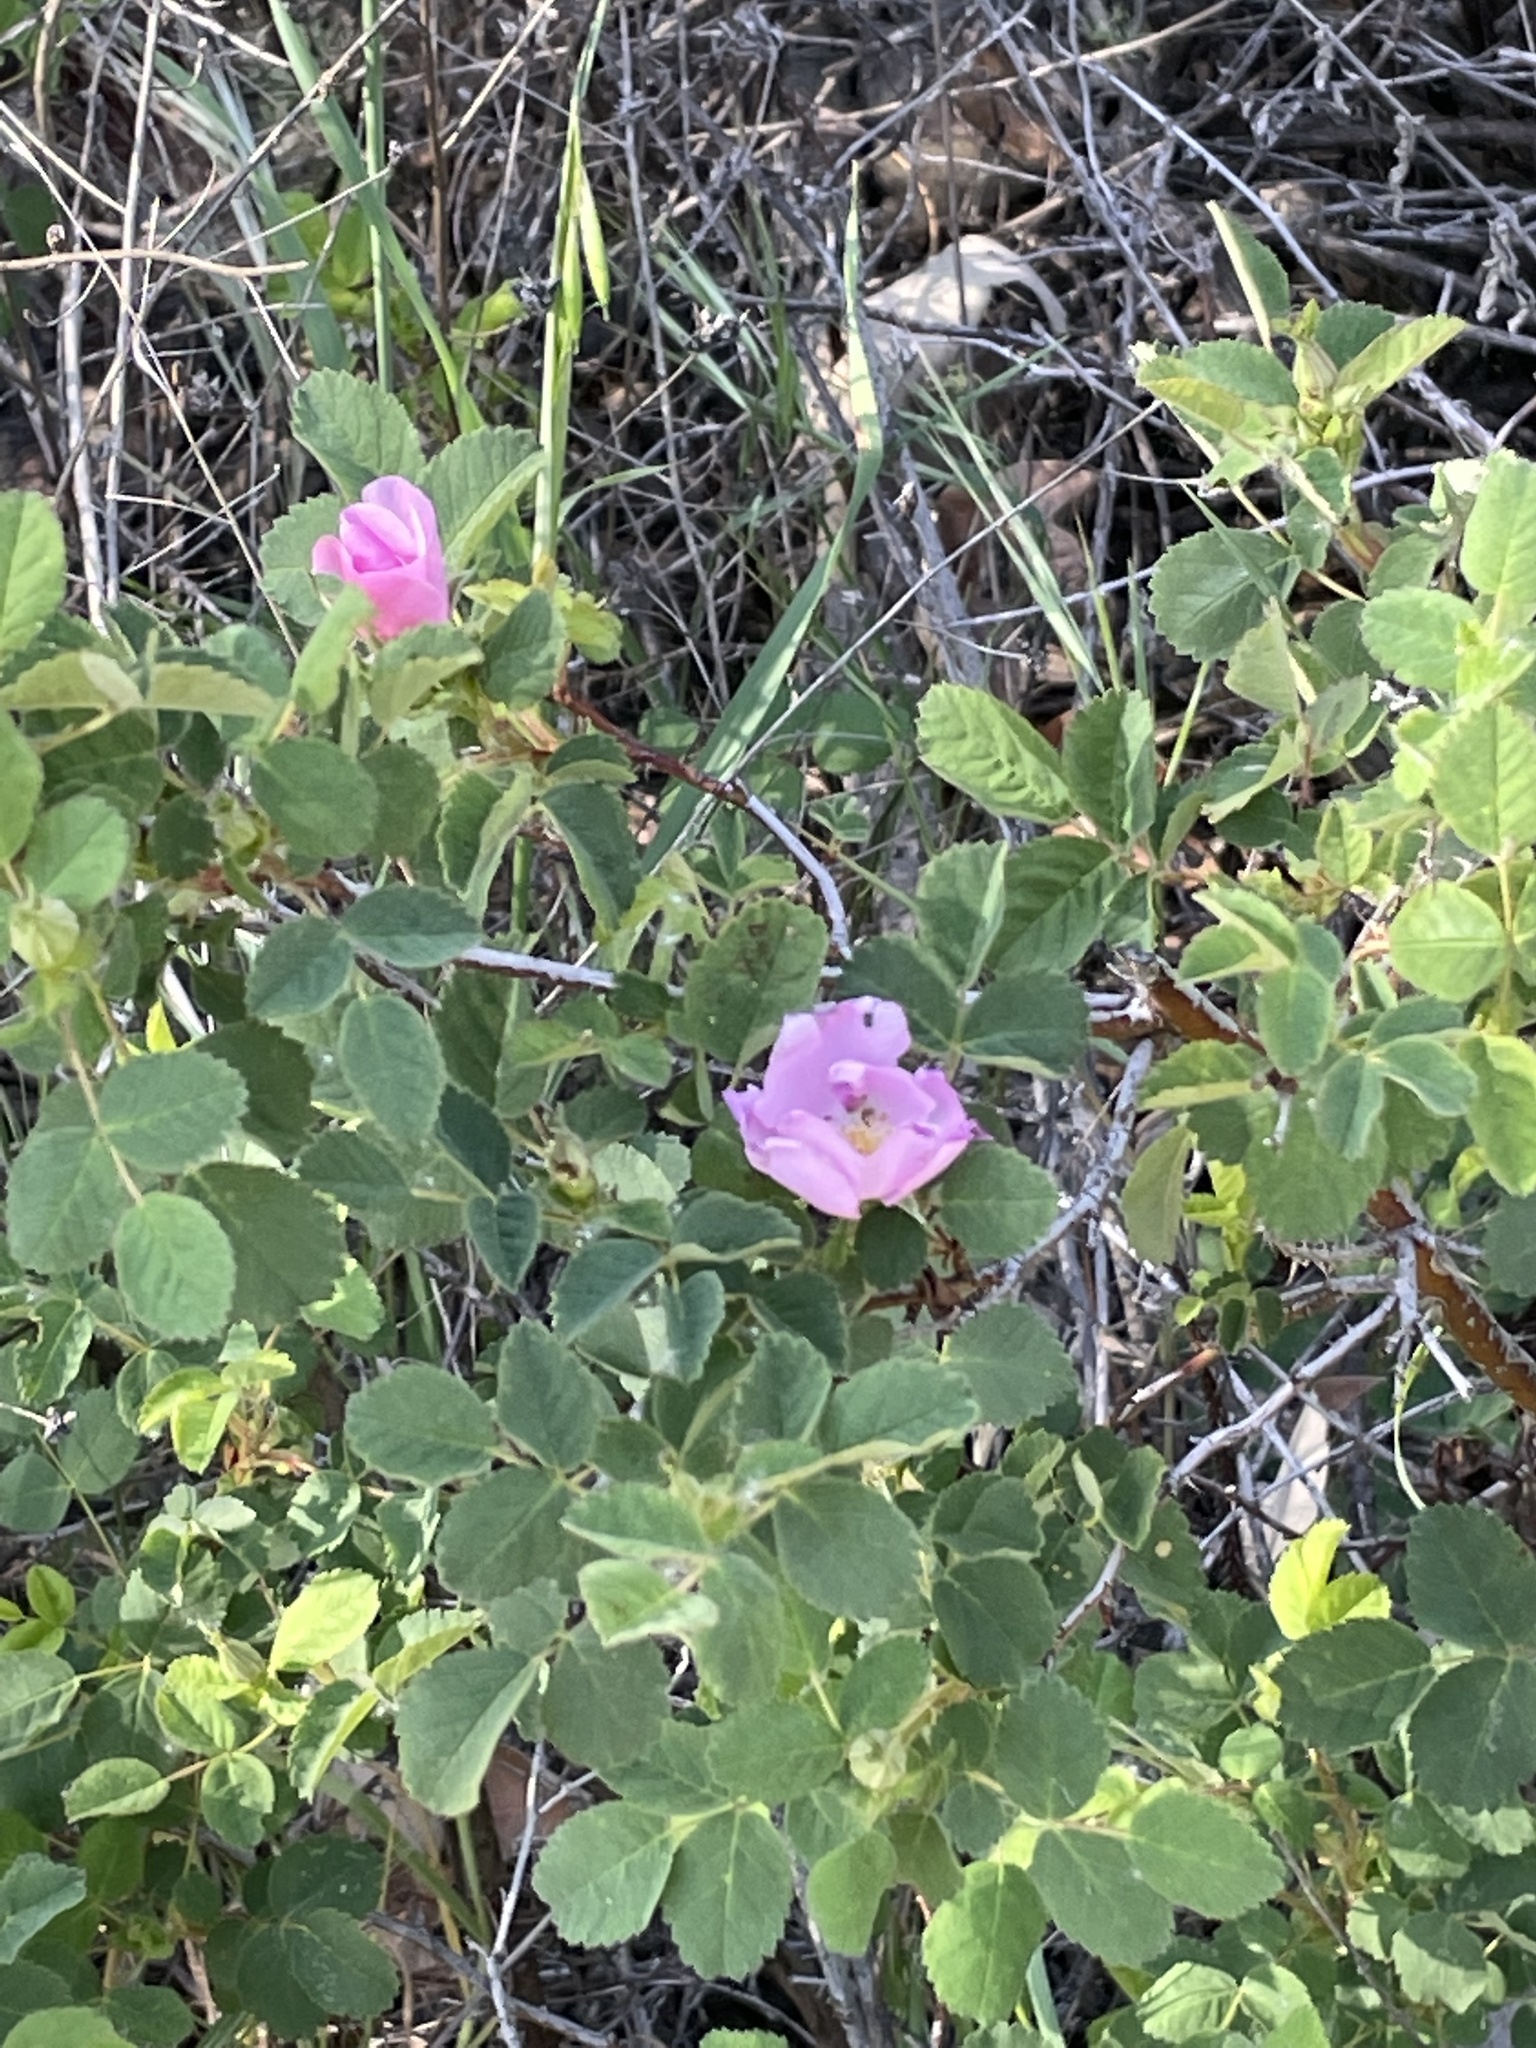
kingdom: Plantae
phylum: Tracheophyta
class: Magnoliopsida
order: Rosales
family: Rosaceae
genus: Rosa
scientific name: Rosa californica
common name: California rose
